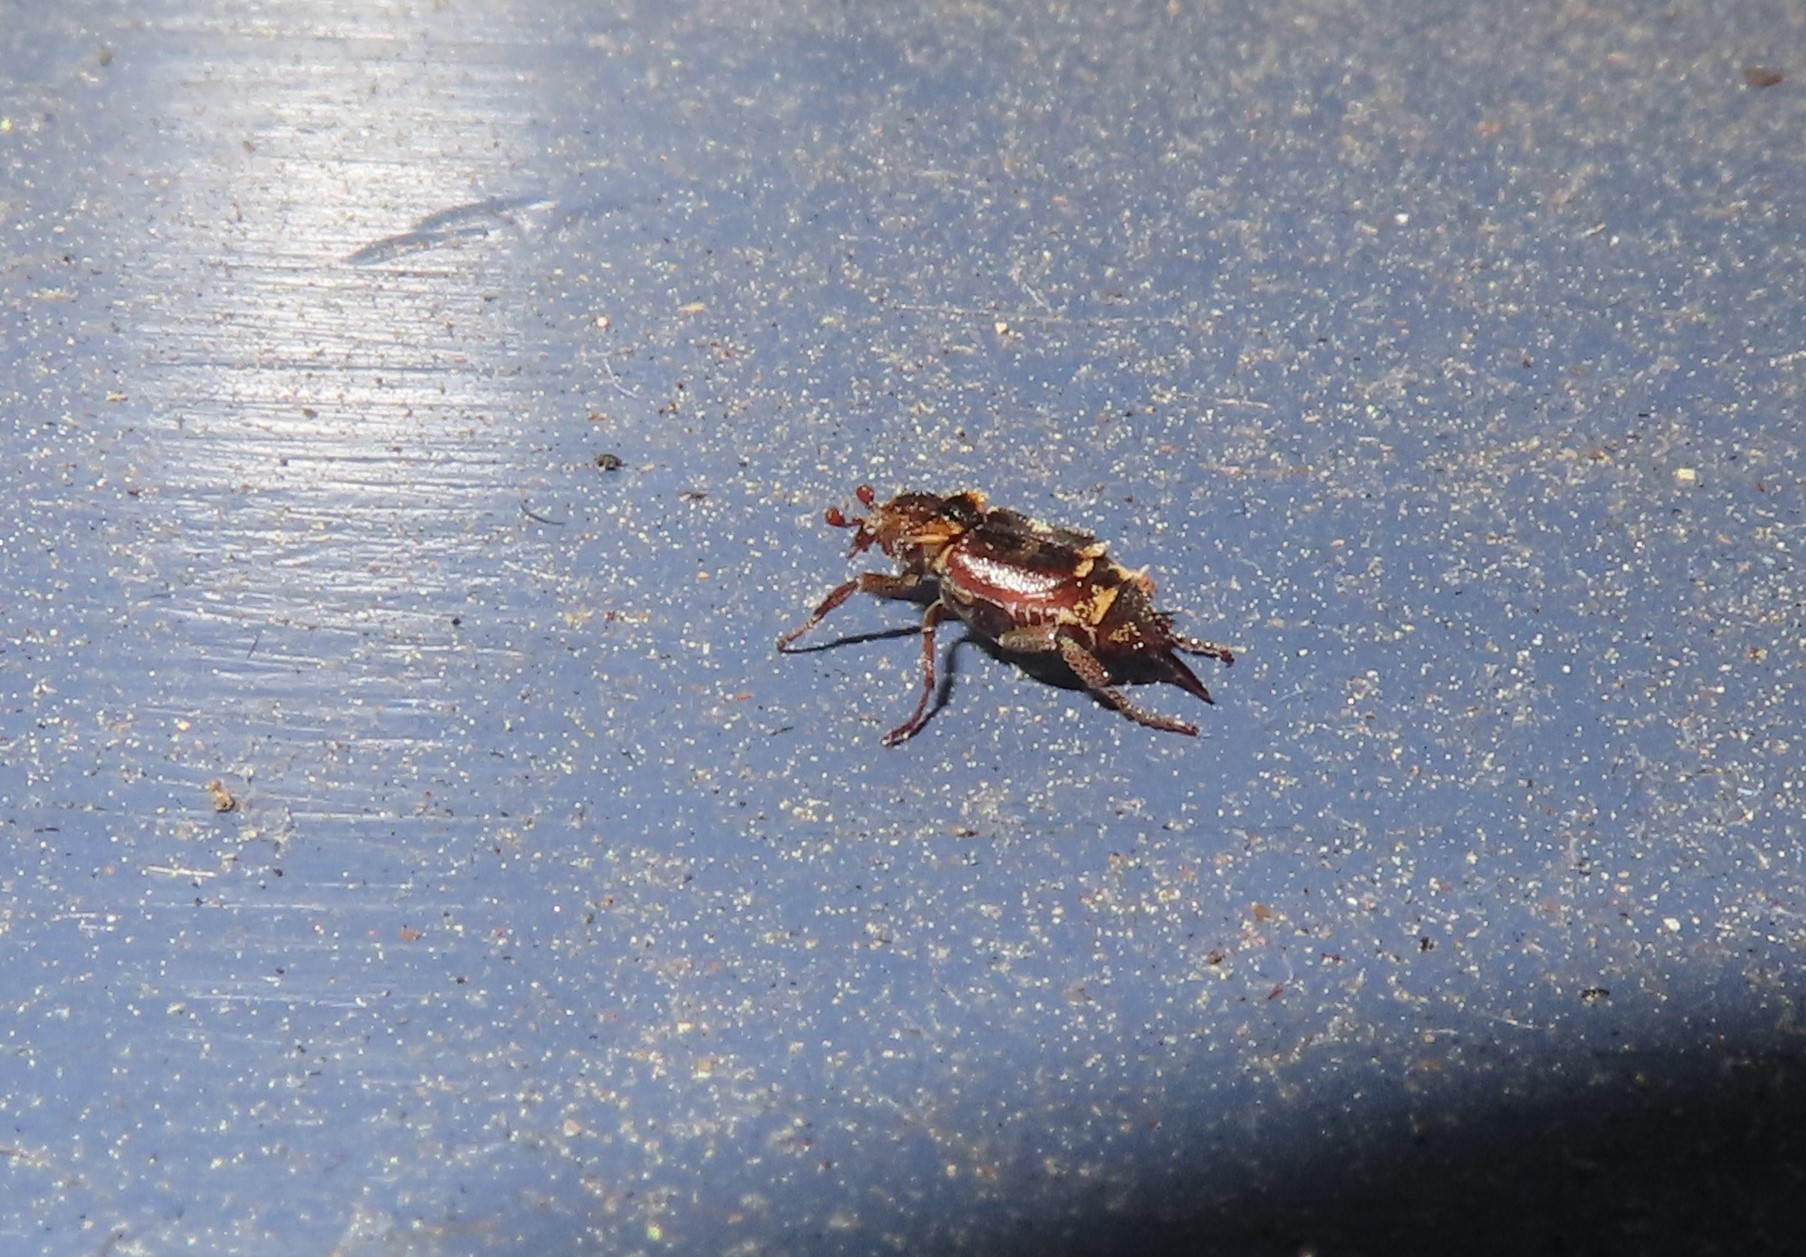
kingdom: Animalia
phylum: Arthropoda
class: Insecta
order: Coleoptera
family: Scarabaeidae
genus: Valgus
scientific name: Valgus canaliculatus
